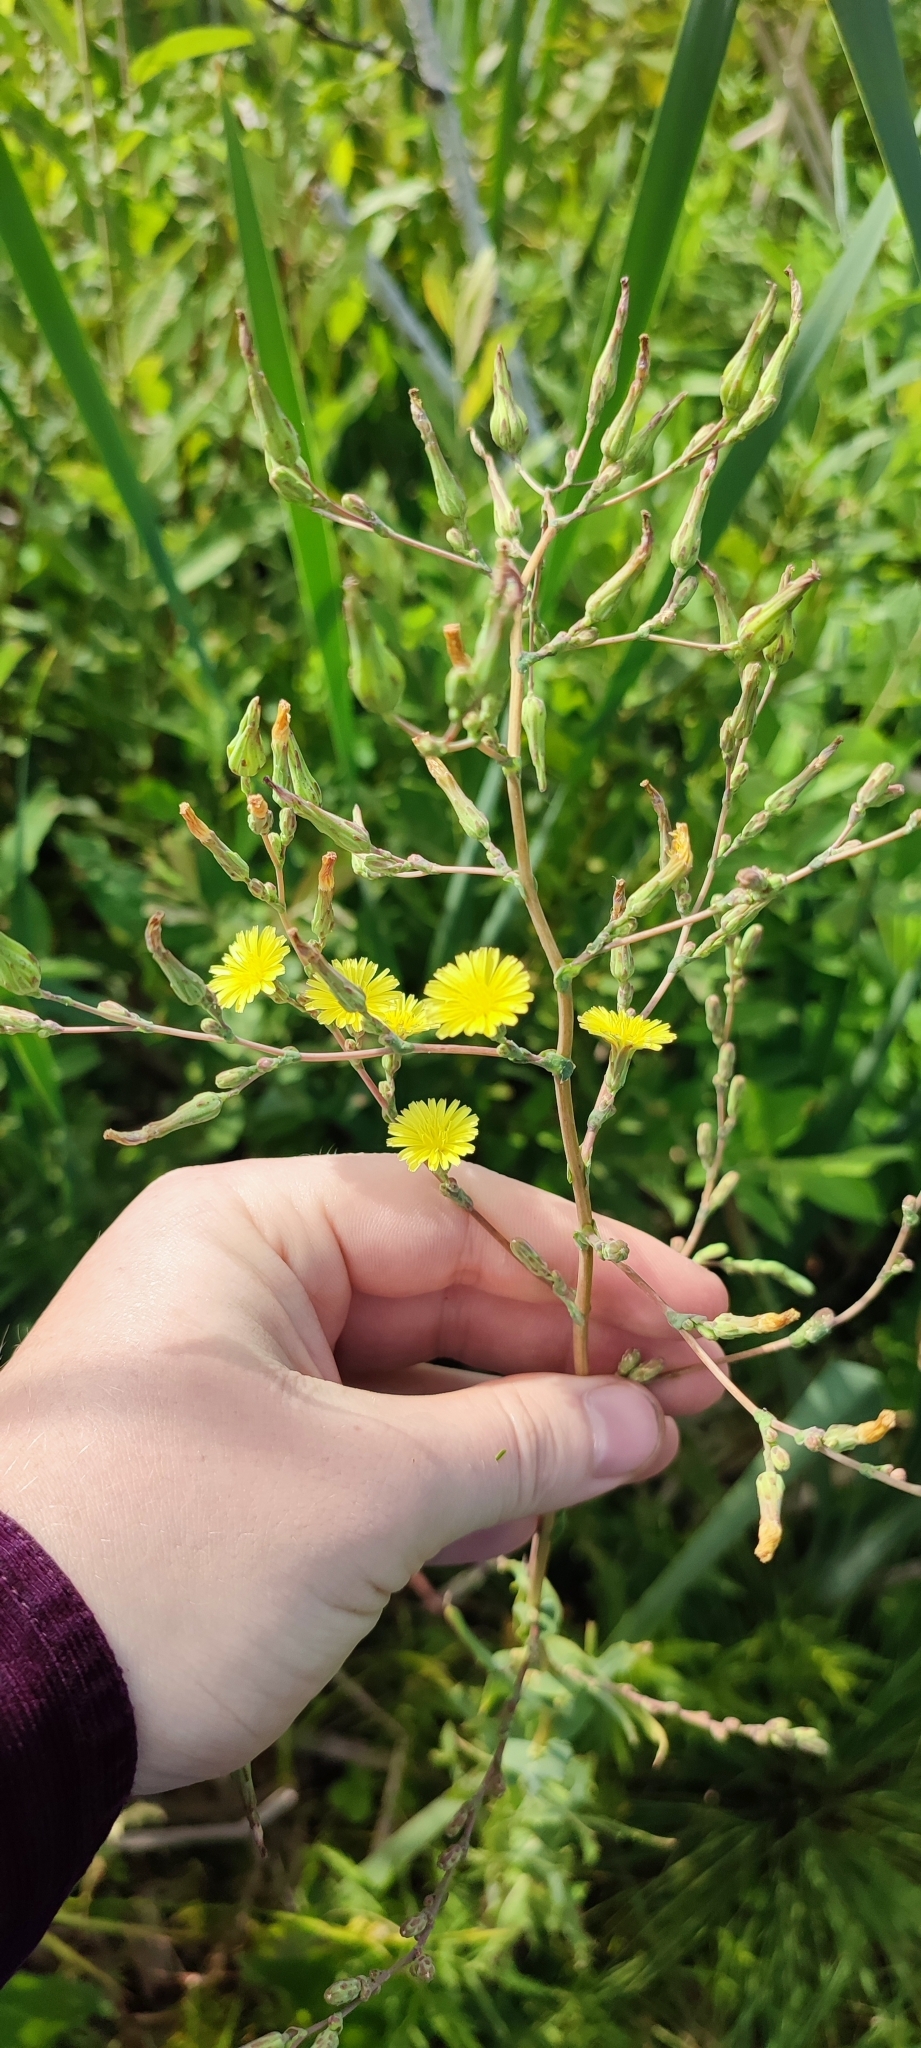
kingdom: Plantae
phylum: Tracheophyta
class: Magnoliopsida
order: Asterales
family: Asteraceae
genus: Lactuca
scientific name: Lactuca serriola
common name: Prickly lettuce
